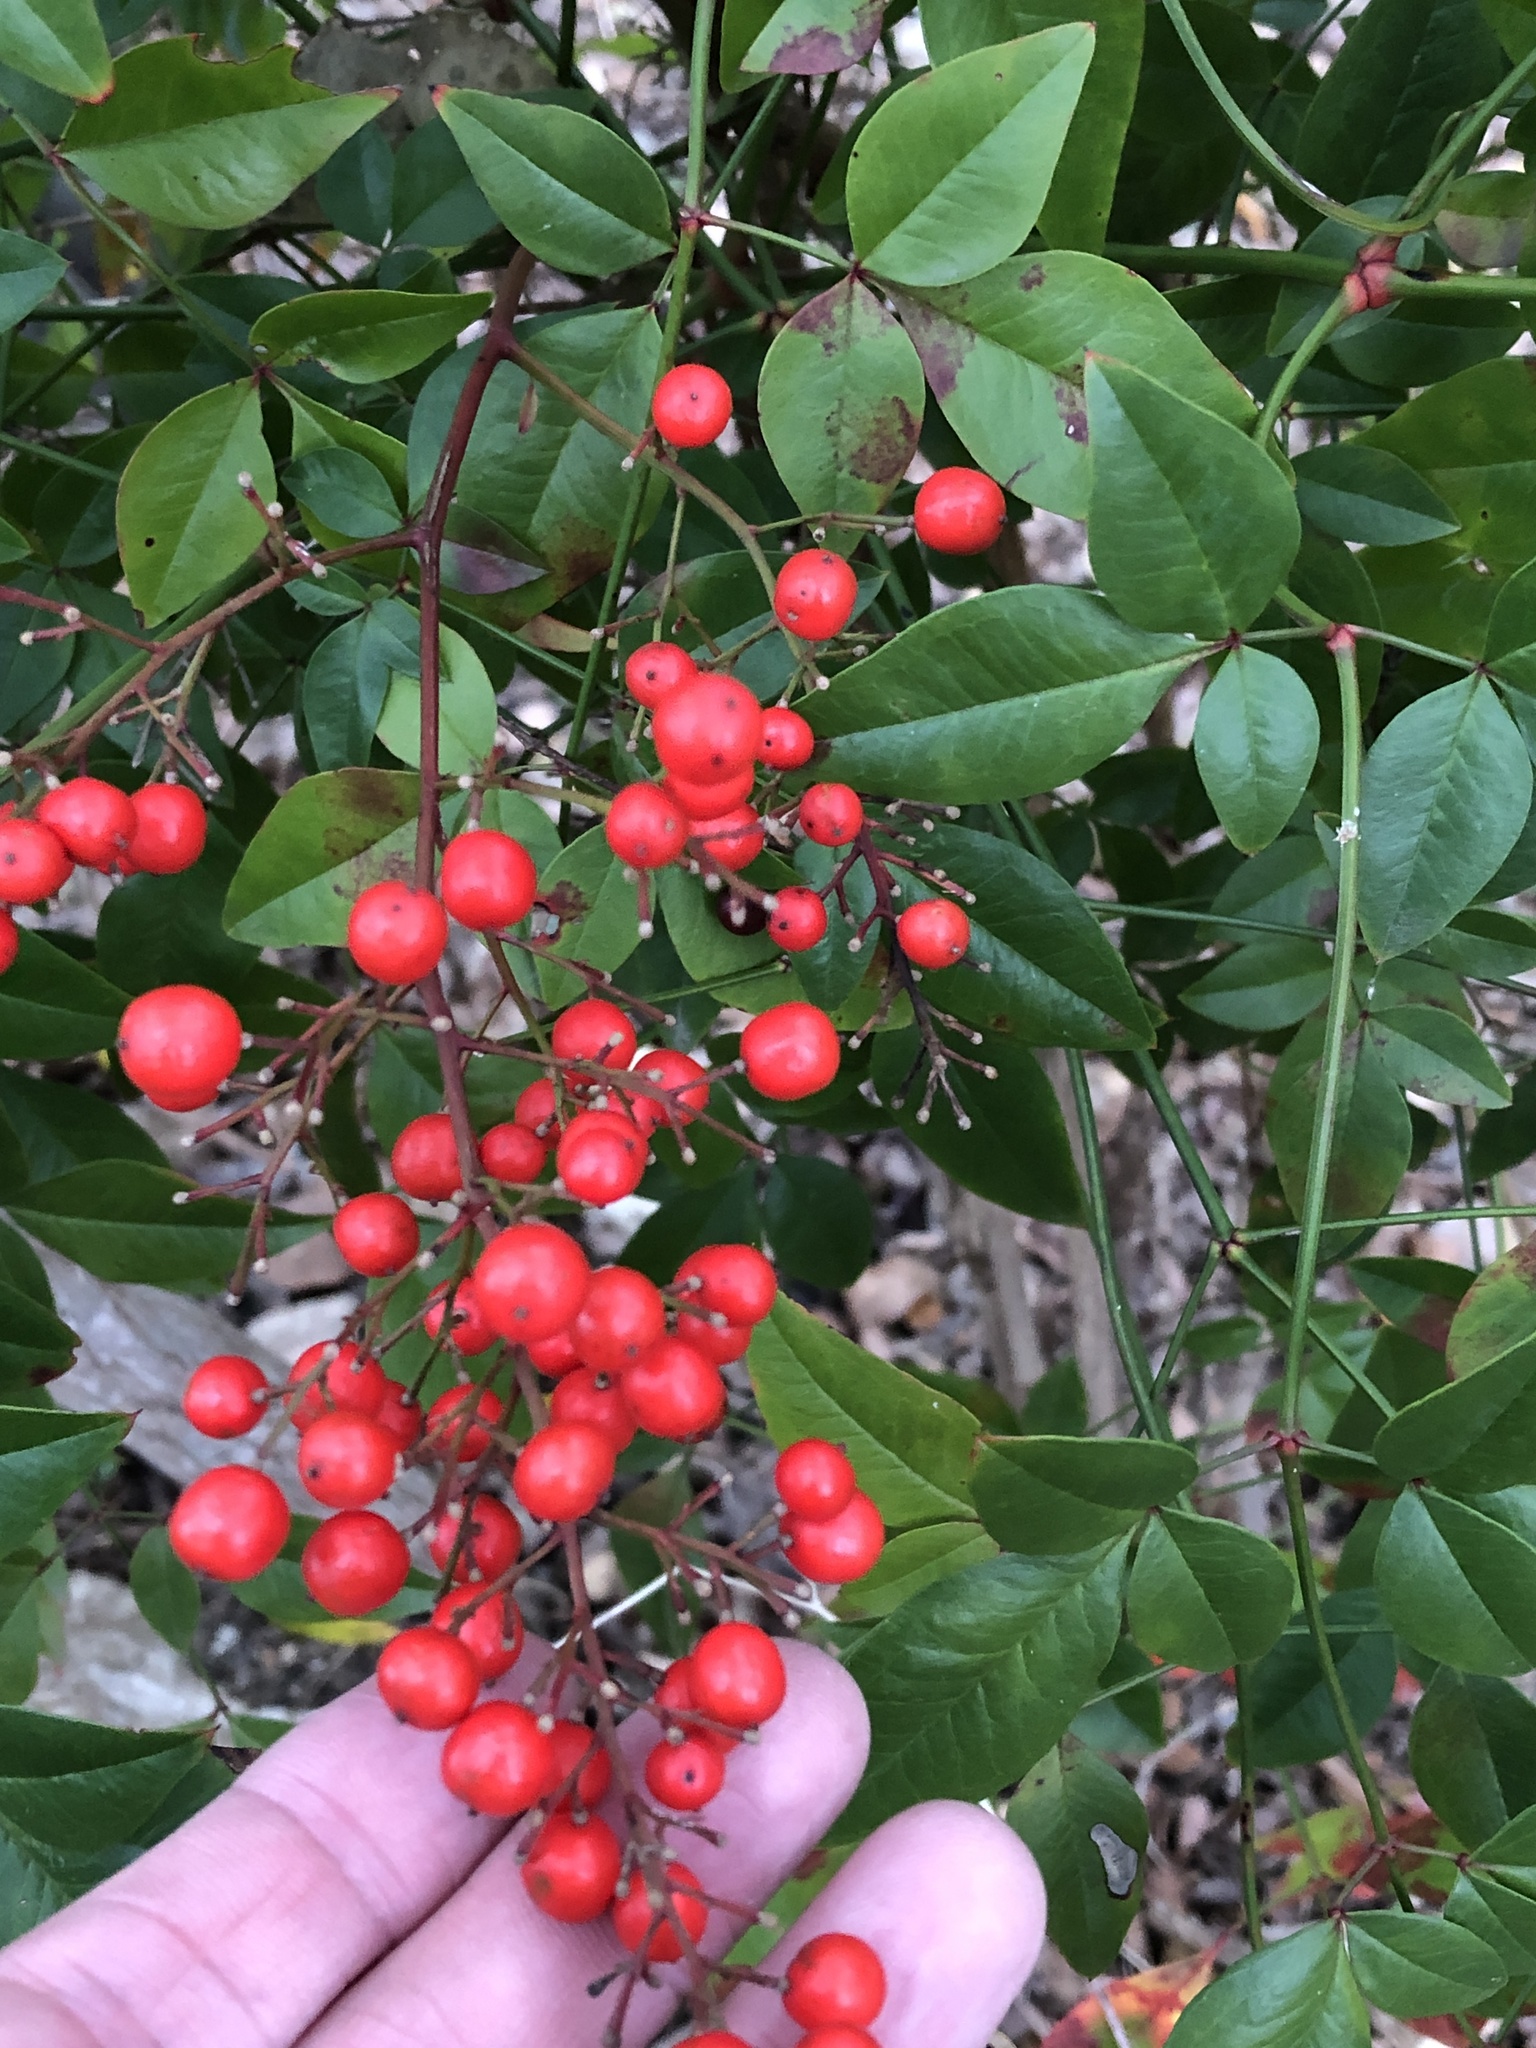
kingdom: Plantae
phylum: Tracheophyta
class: Magnoliopsida
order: Ranunculales
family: Berberidaceae
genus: Nandina
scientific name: Nandina domestica
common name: Sacred bamboo
